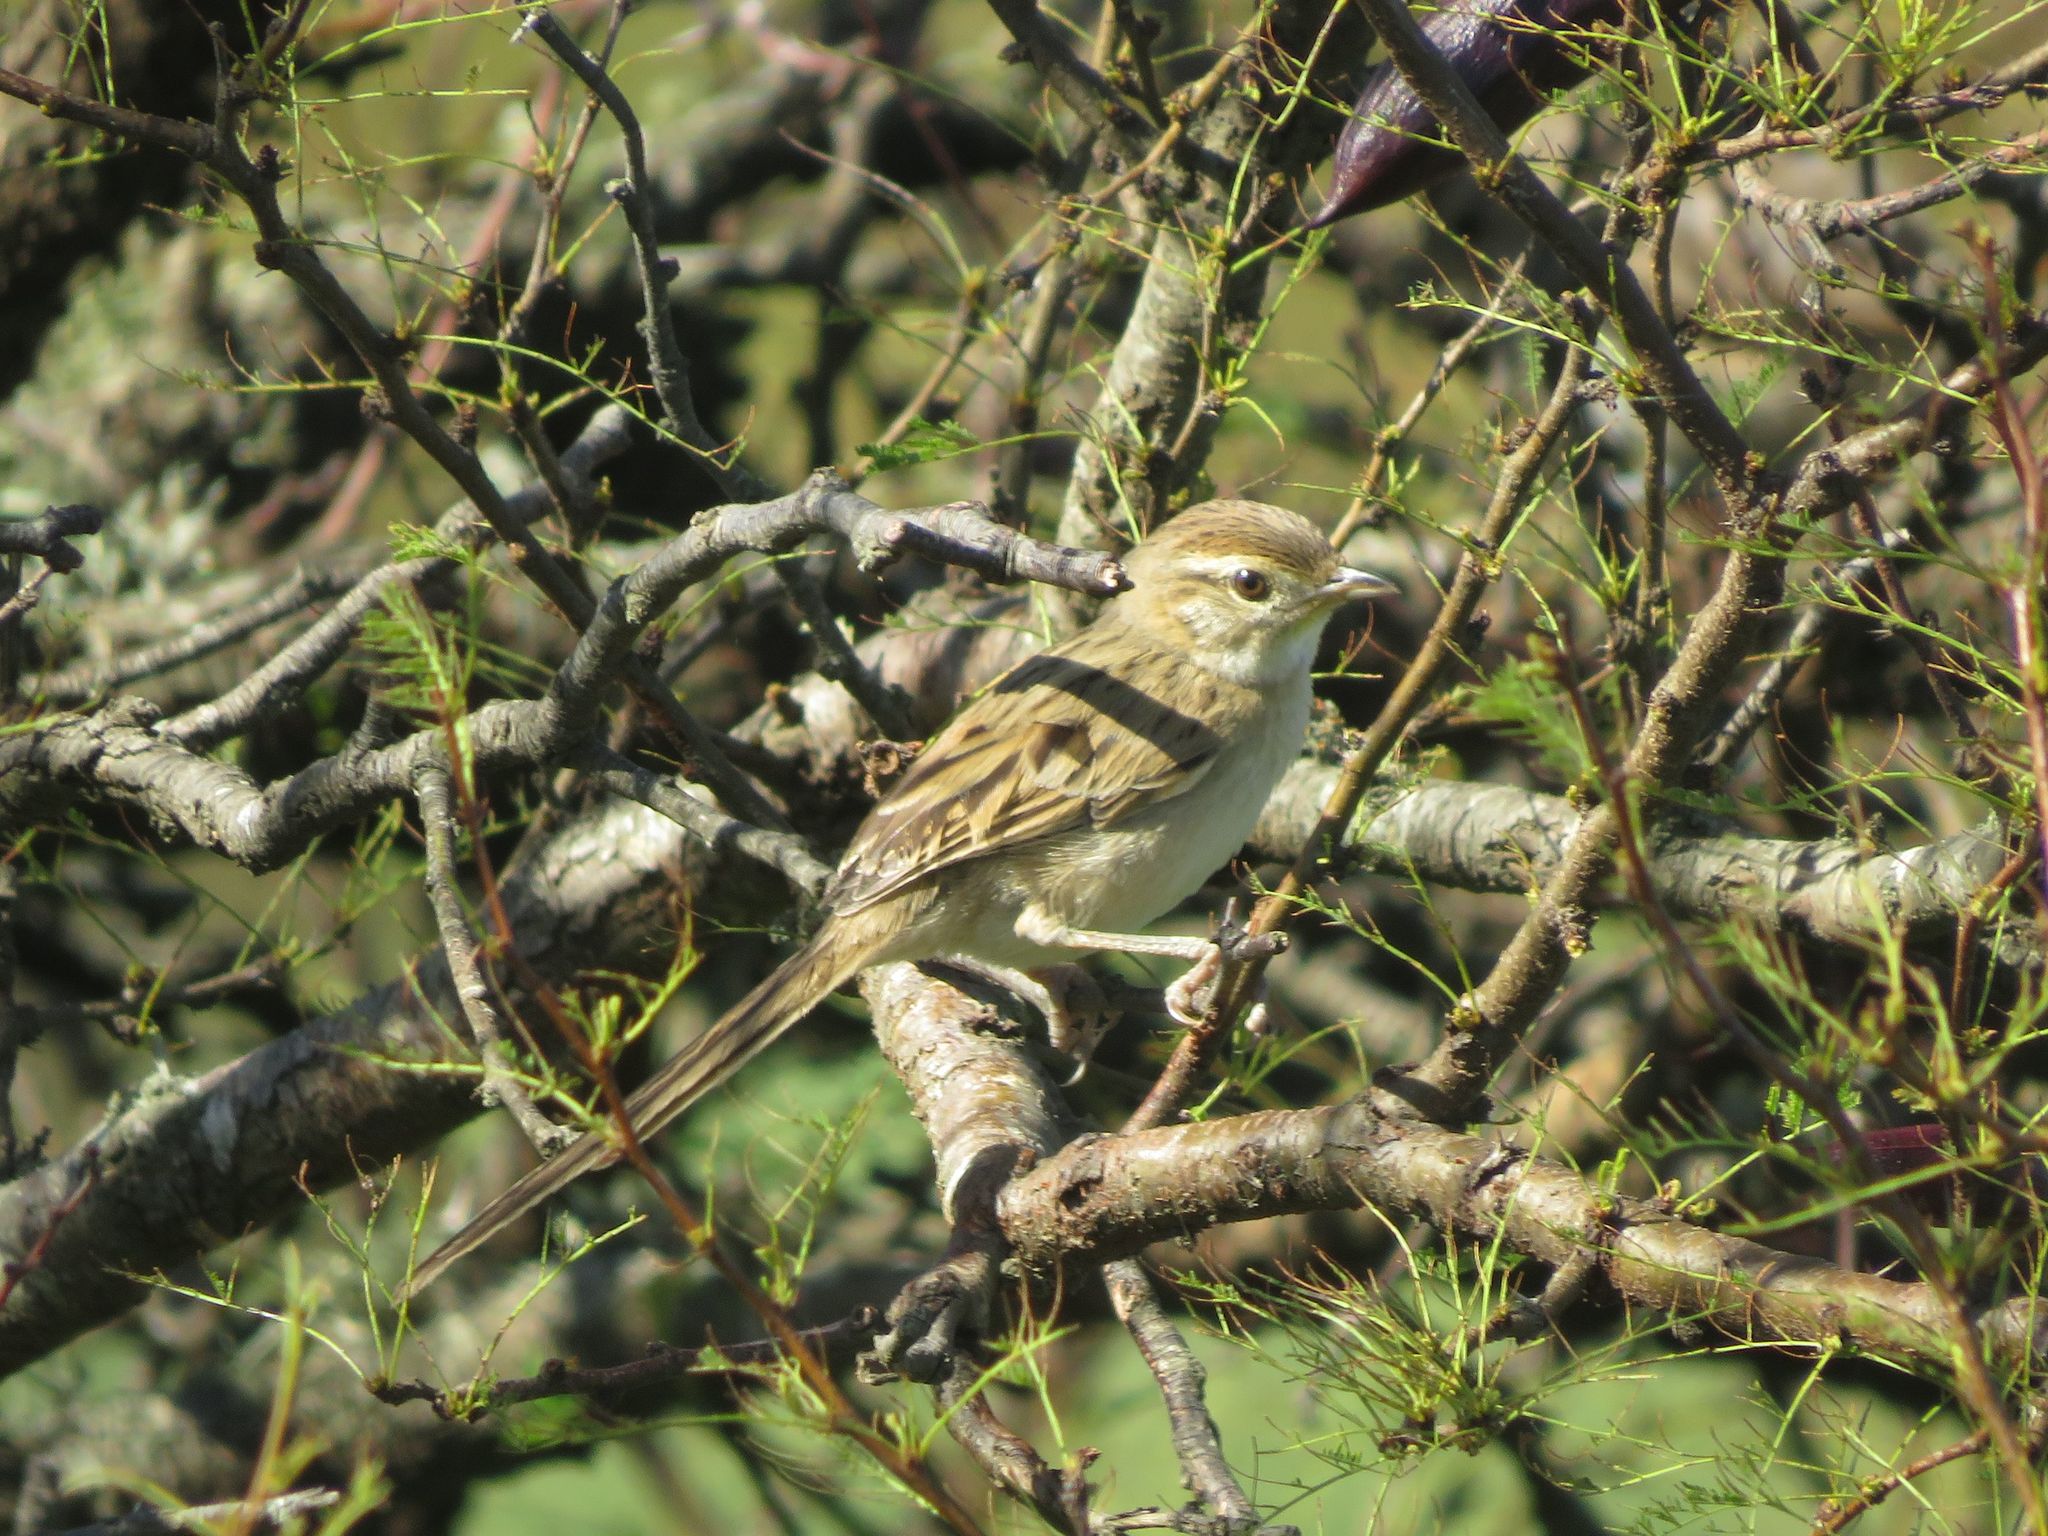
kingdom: Animalia
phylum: Chordata
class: Aves
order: Passeriformes
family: Furnariidae
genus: Schoeniophylax
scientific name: Schoeniophylax phryganophilus
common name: Chotoy spinetail
